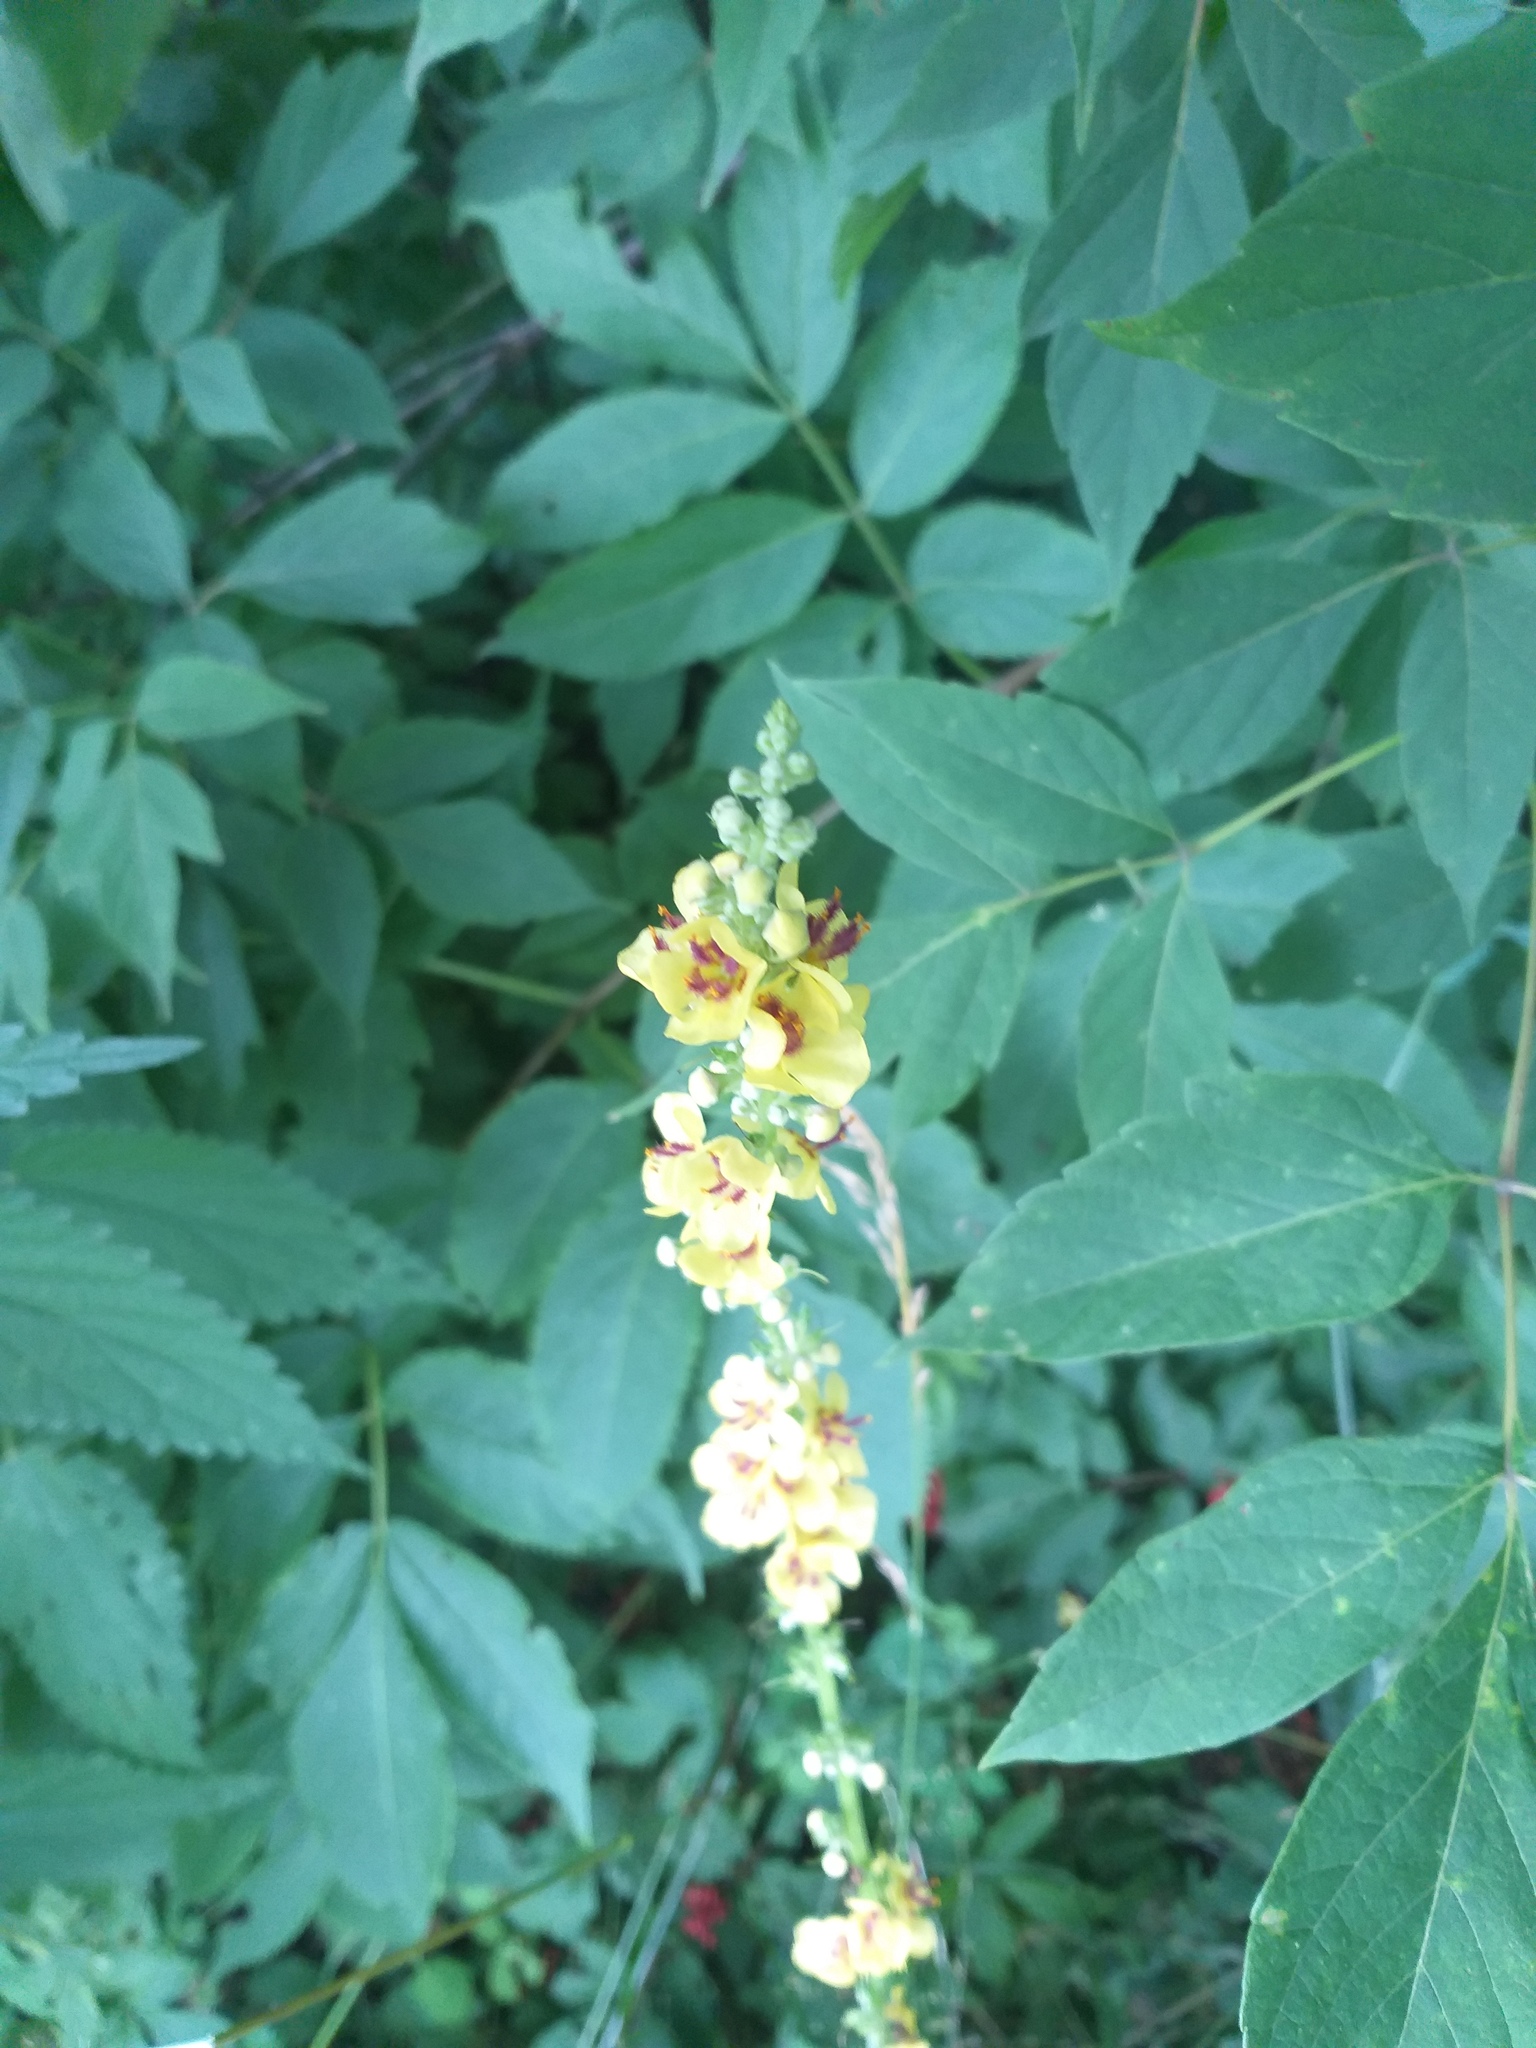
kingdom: Plantae
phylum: Tracheophyta
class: Magnoliopsida
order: Lamiales
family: Scrophulariaceae
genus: Verbascum
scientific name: Verbascum nigrum
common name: Dark mullein
